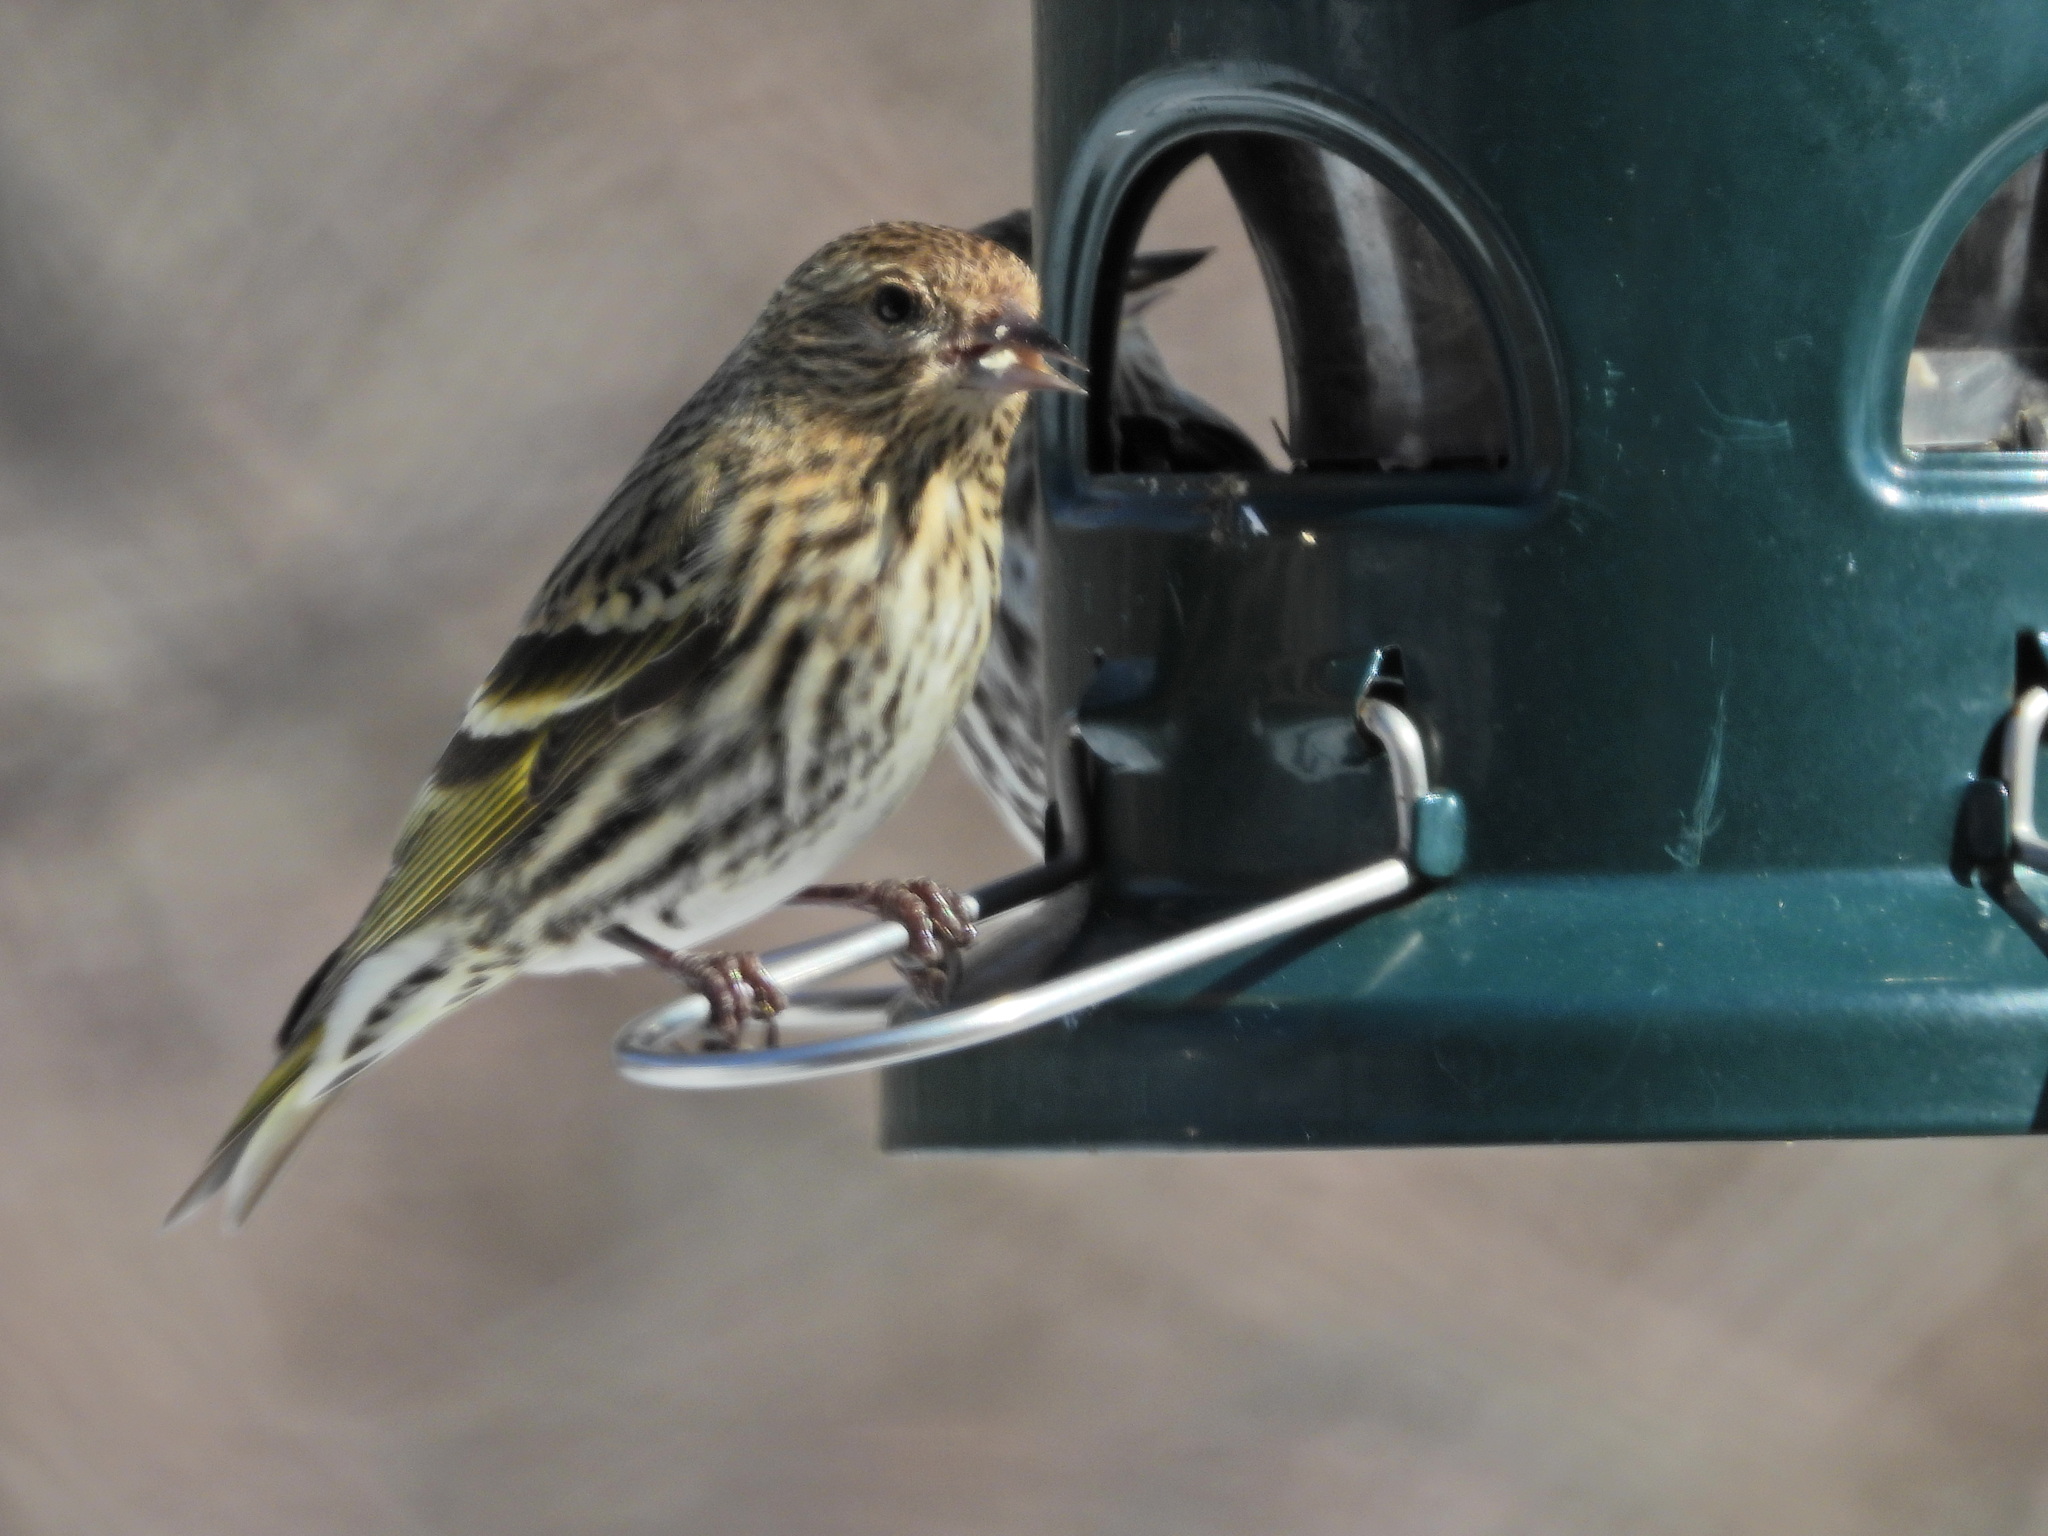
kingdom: Animalia
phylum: Chordata
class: Aves
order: Passeriformes
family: Fringillidae
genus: Spinus
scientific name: Spinus pinus
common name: Pine siskin
